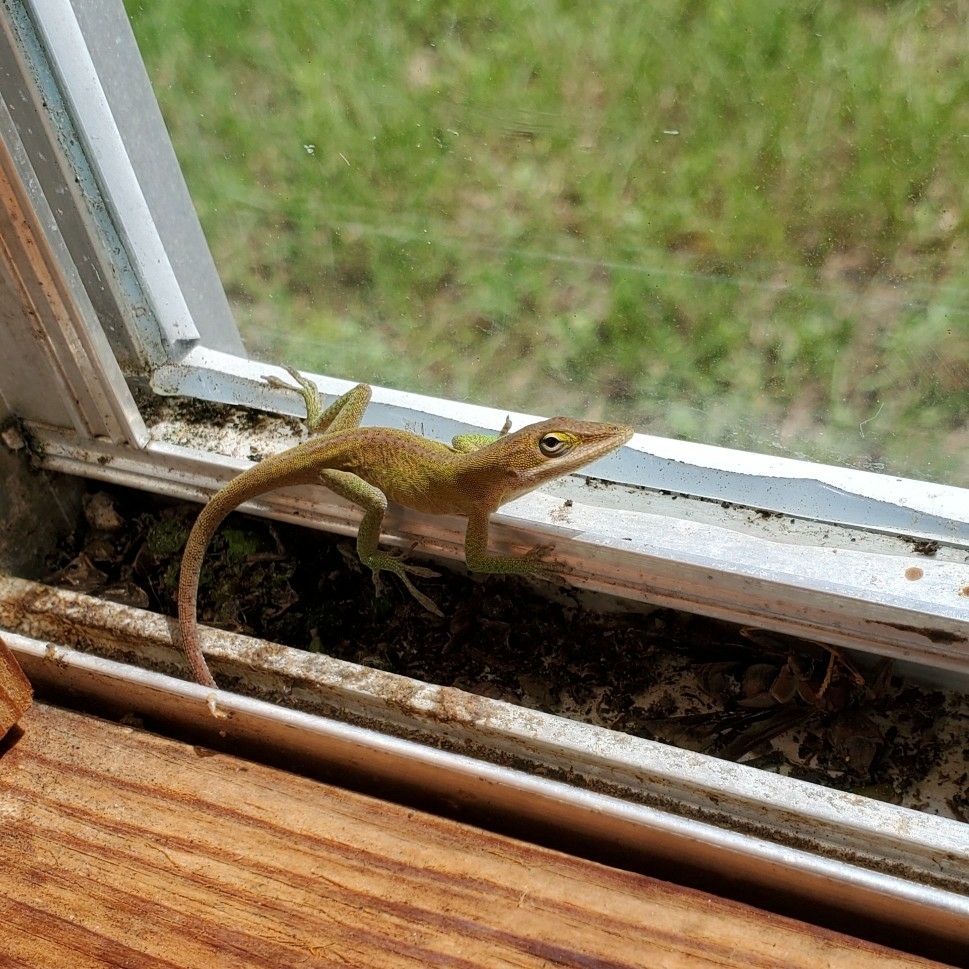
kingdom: Animalia
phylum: Chordata
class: Squamata
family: Dactyloidae
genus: Anolis
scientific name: Anolis carolinensis
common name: Green anole
